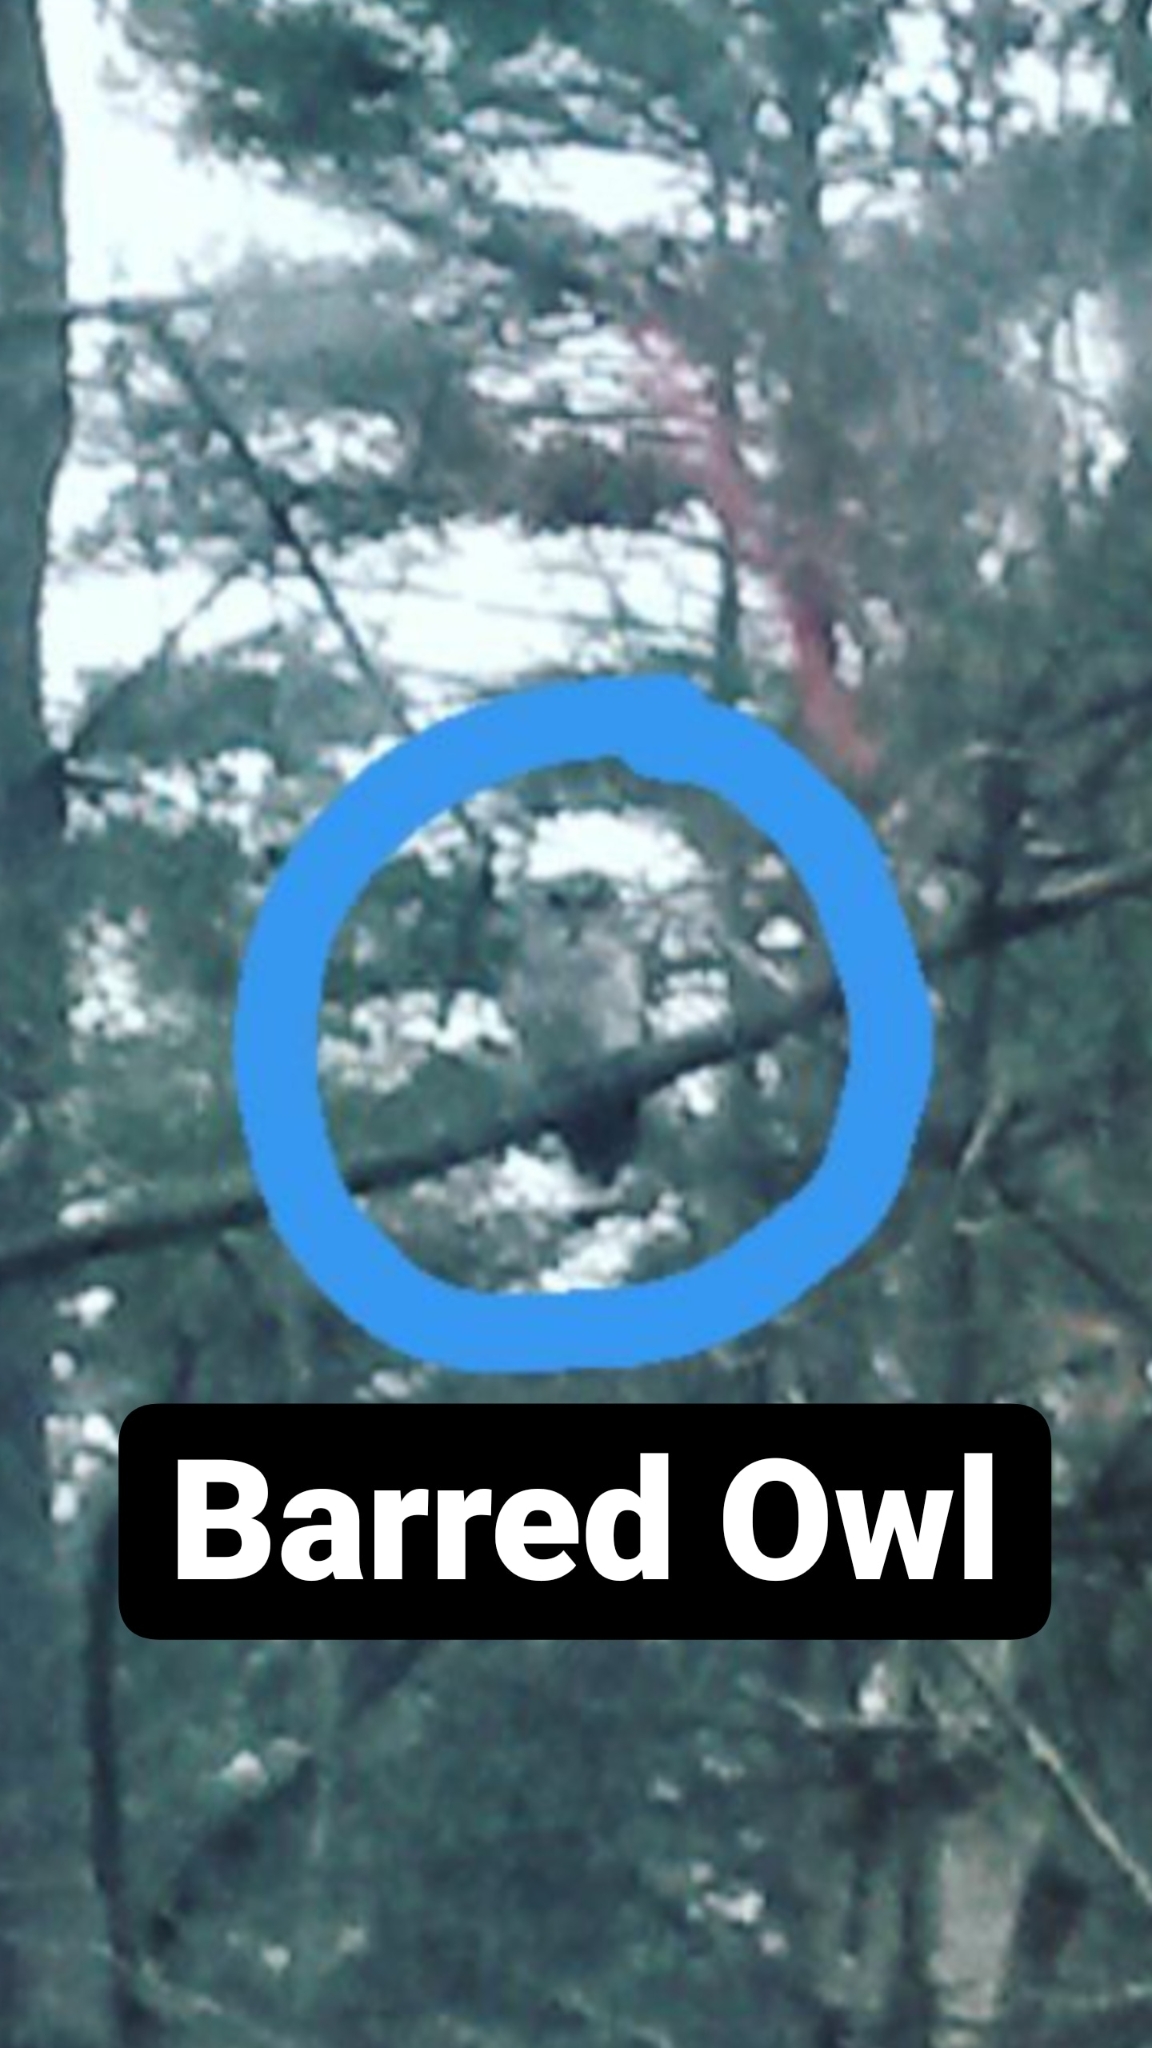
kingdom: Animalia
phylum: Chordata
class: Aves
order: Strigiformes
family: Strigidae
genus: Strix
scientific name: Strix varia
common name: Barred owl
